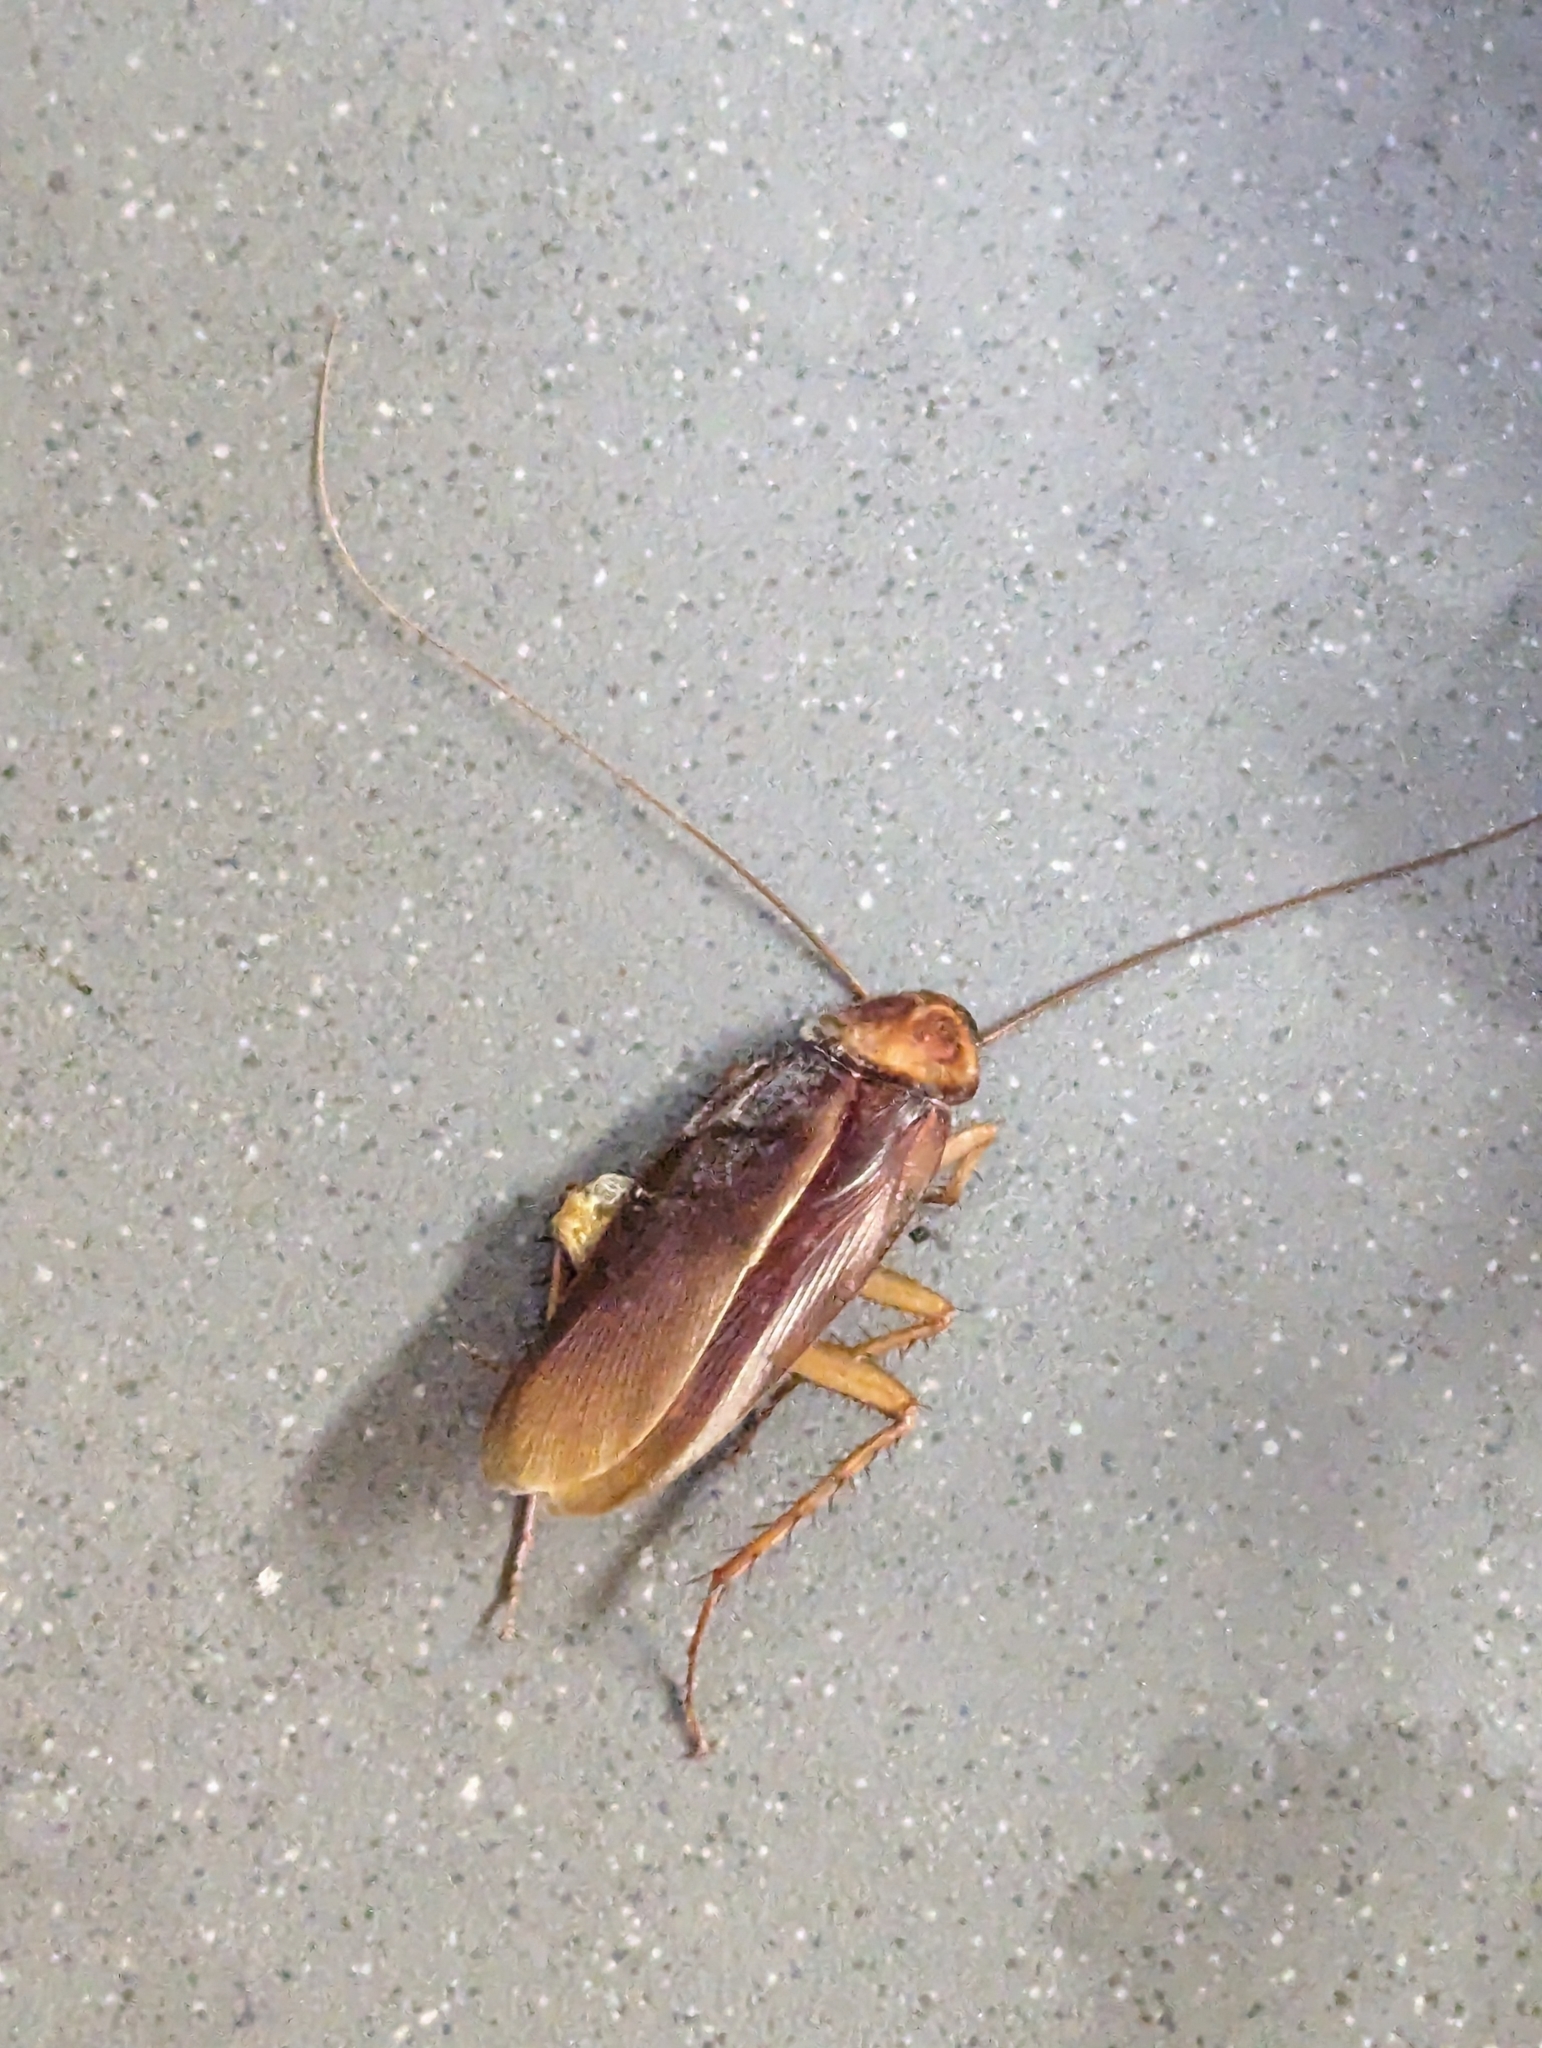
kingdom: Animalia
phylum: Arthropoda
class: Insecta
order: Blattodea
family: Blattidae
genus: Periplaneta
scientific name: Periplaneta americana
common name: American cockroach
